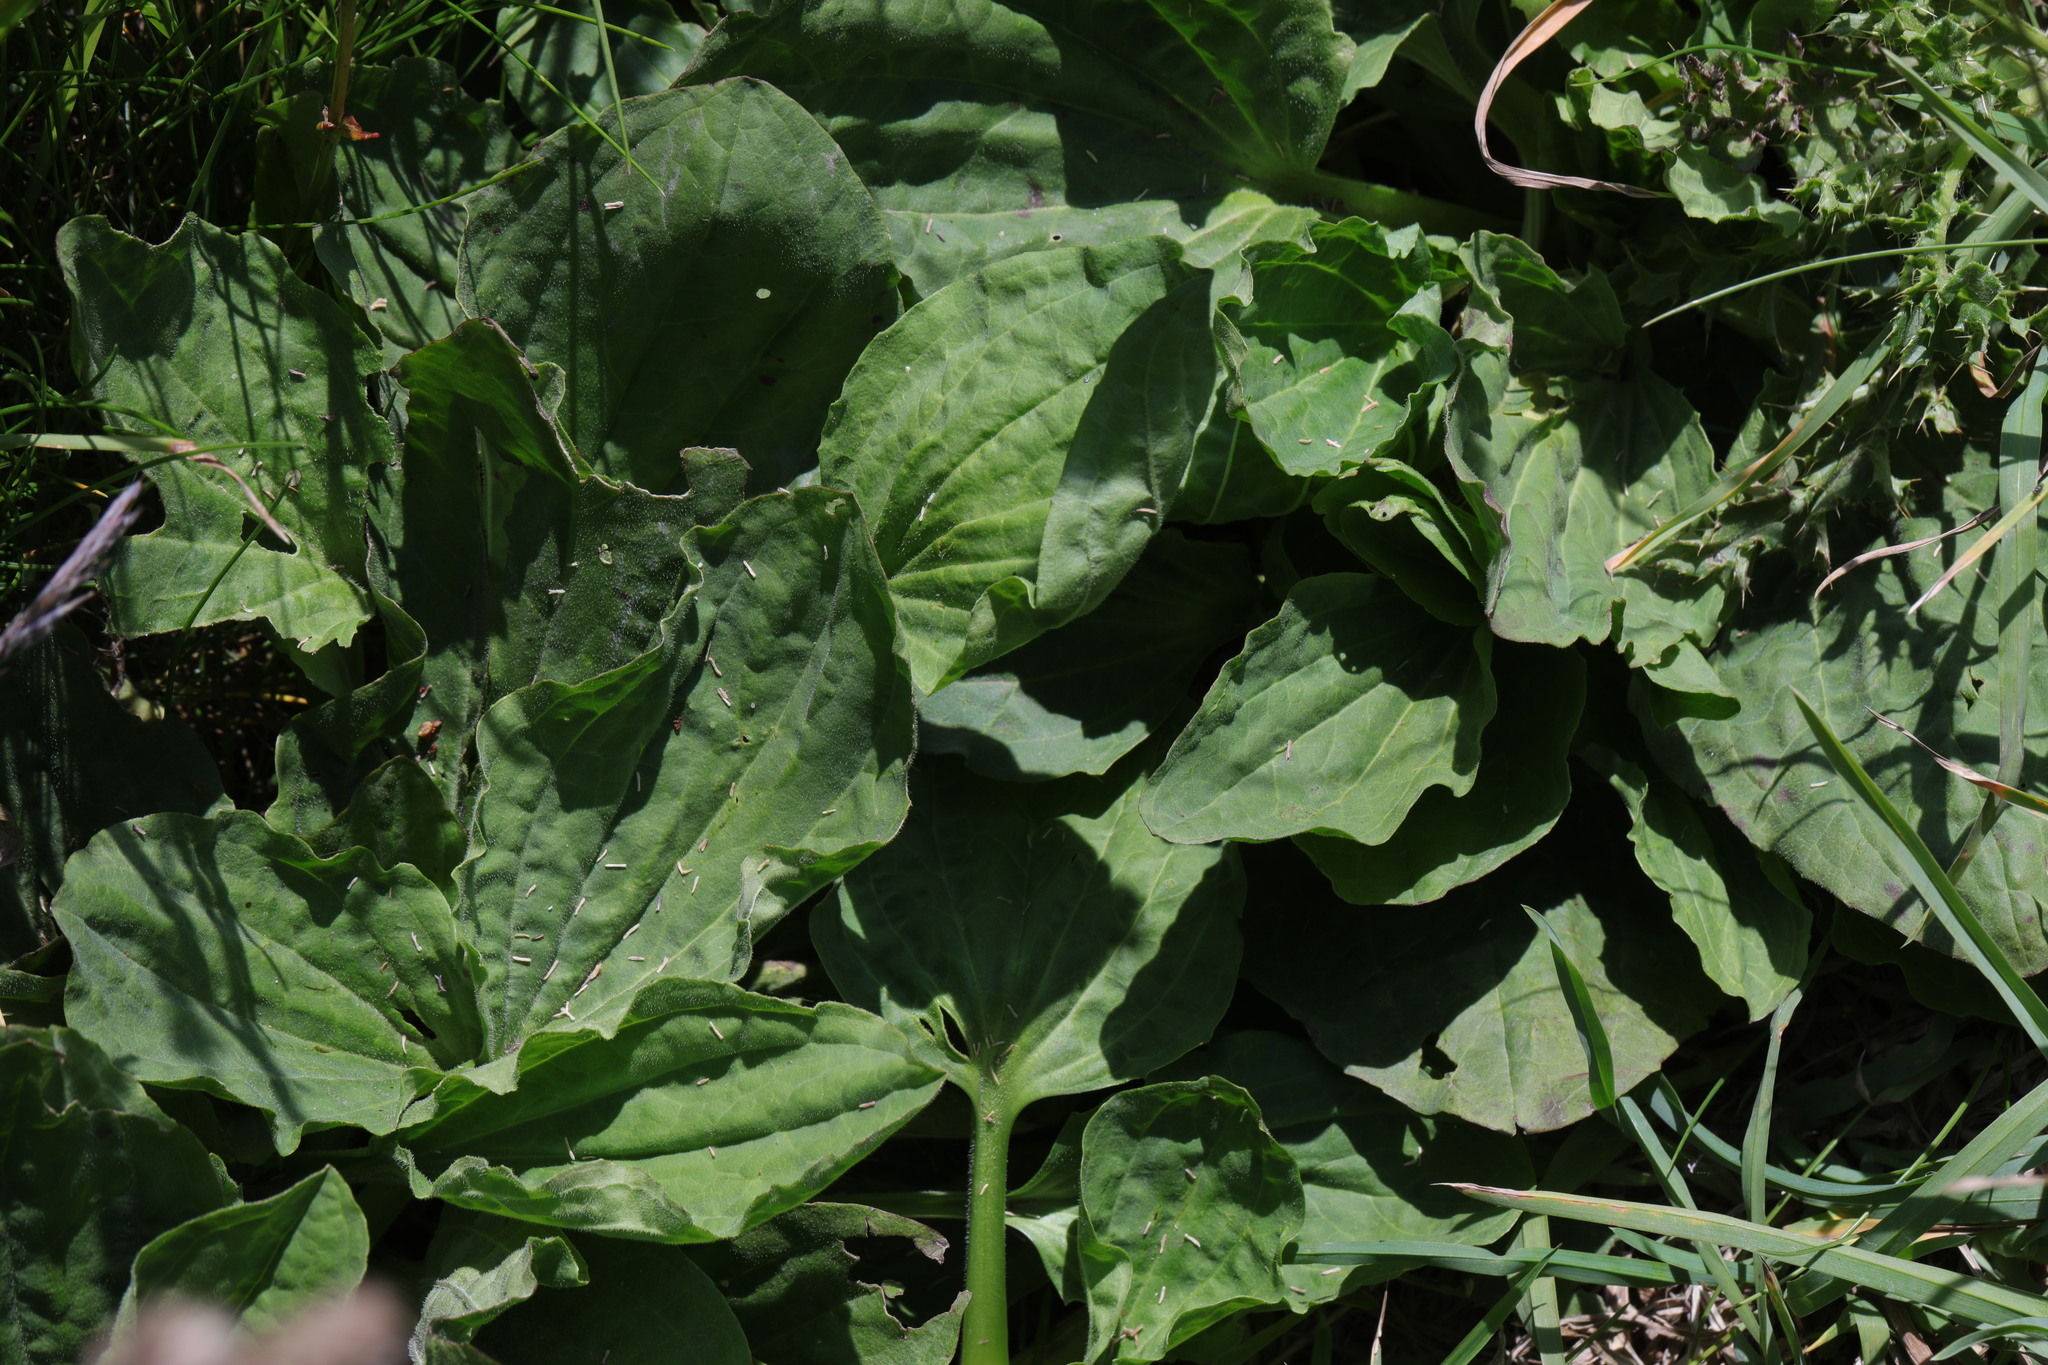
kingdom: Plantae
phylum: Tracheophyta
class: Magnoliopsida
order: Lamiales
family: Plantaginaceae
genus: Plantago
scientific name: Plantago major
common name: Common plantain
